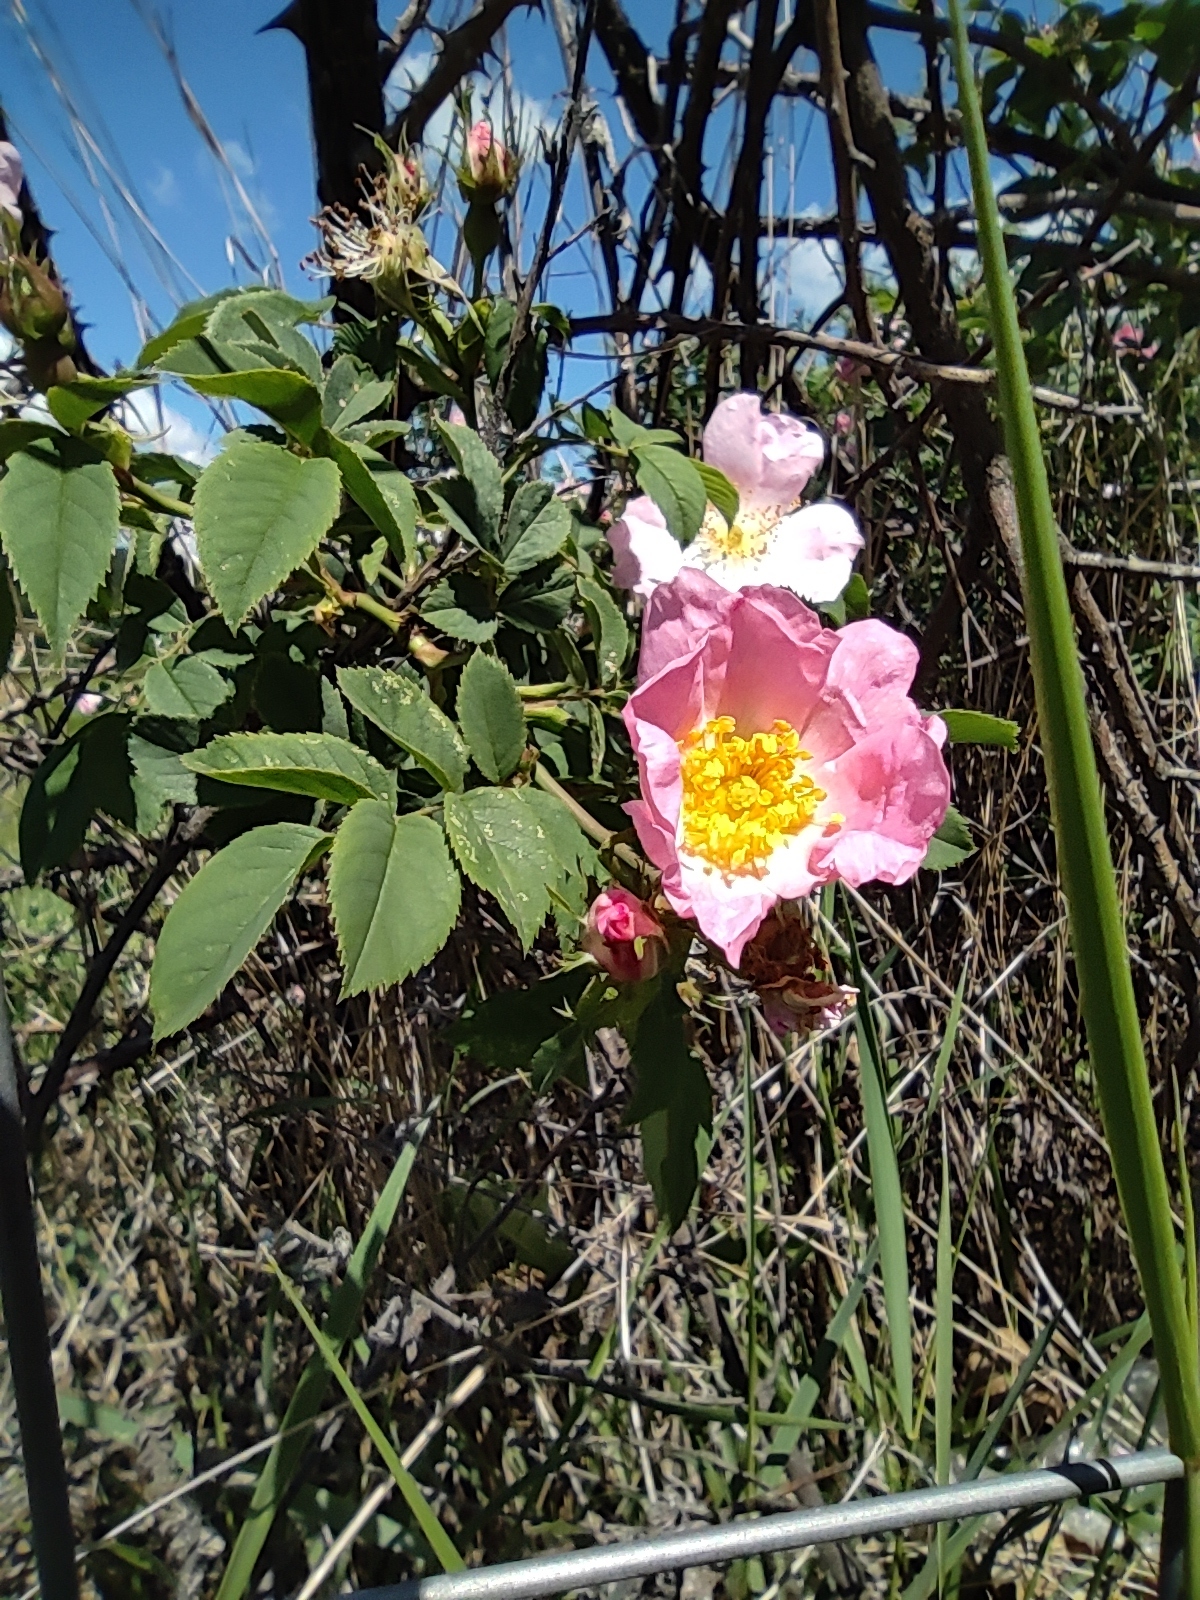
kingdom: Plantae
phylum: Tracheophyta
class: Magnoliopsida
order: Rosales
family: Rosaceae
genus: Rosa
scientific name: Rosa canina
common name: Dog rose
